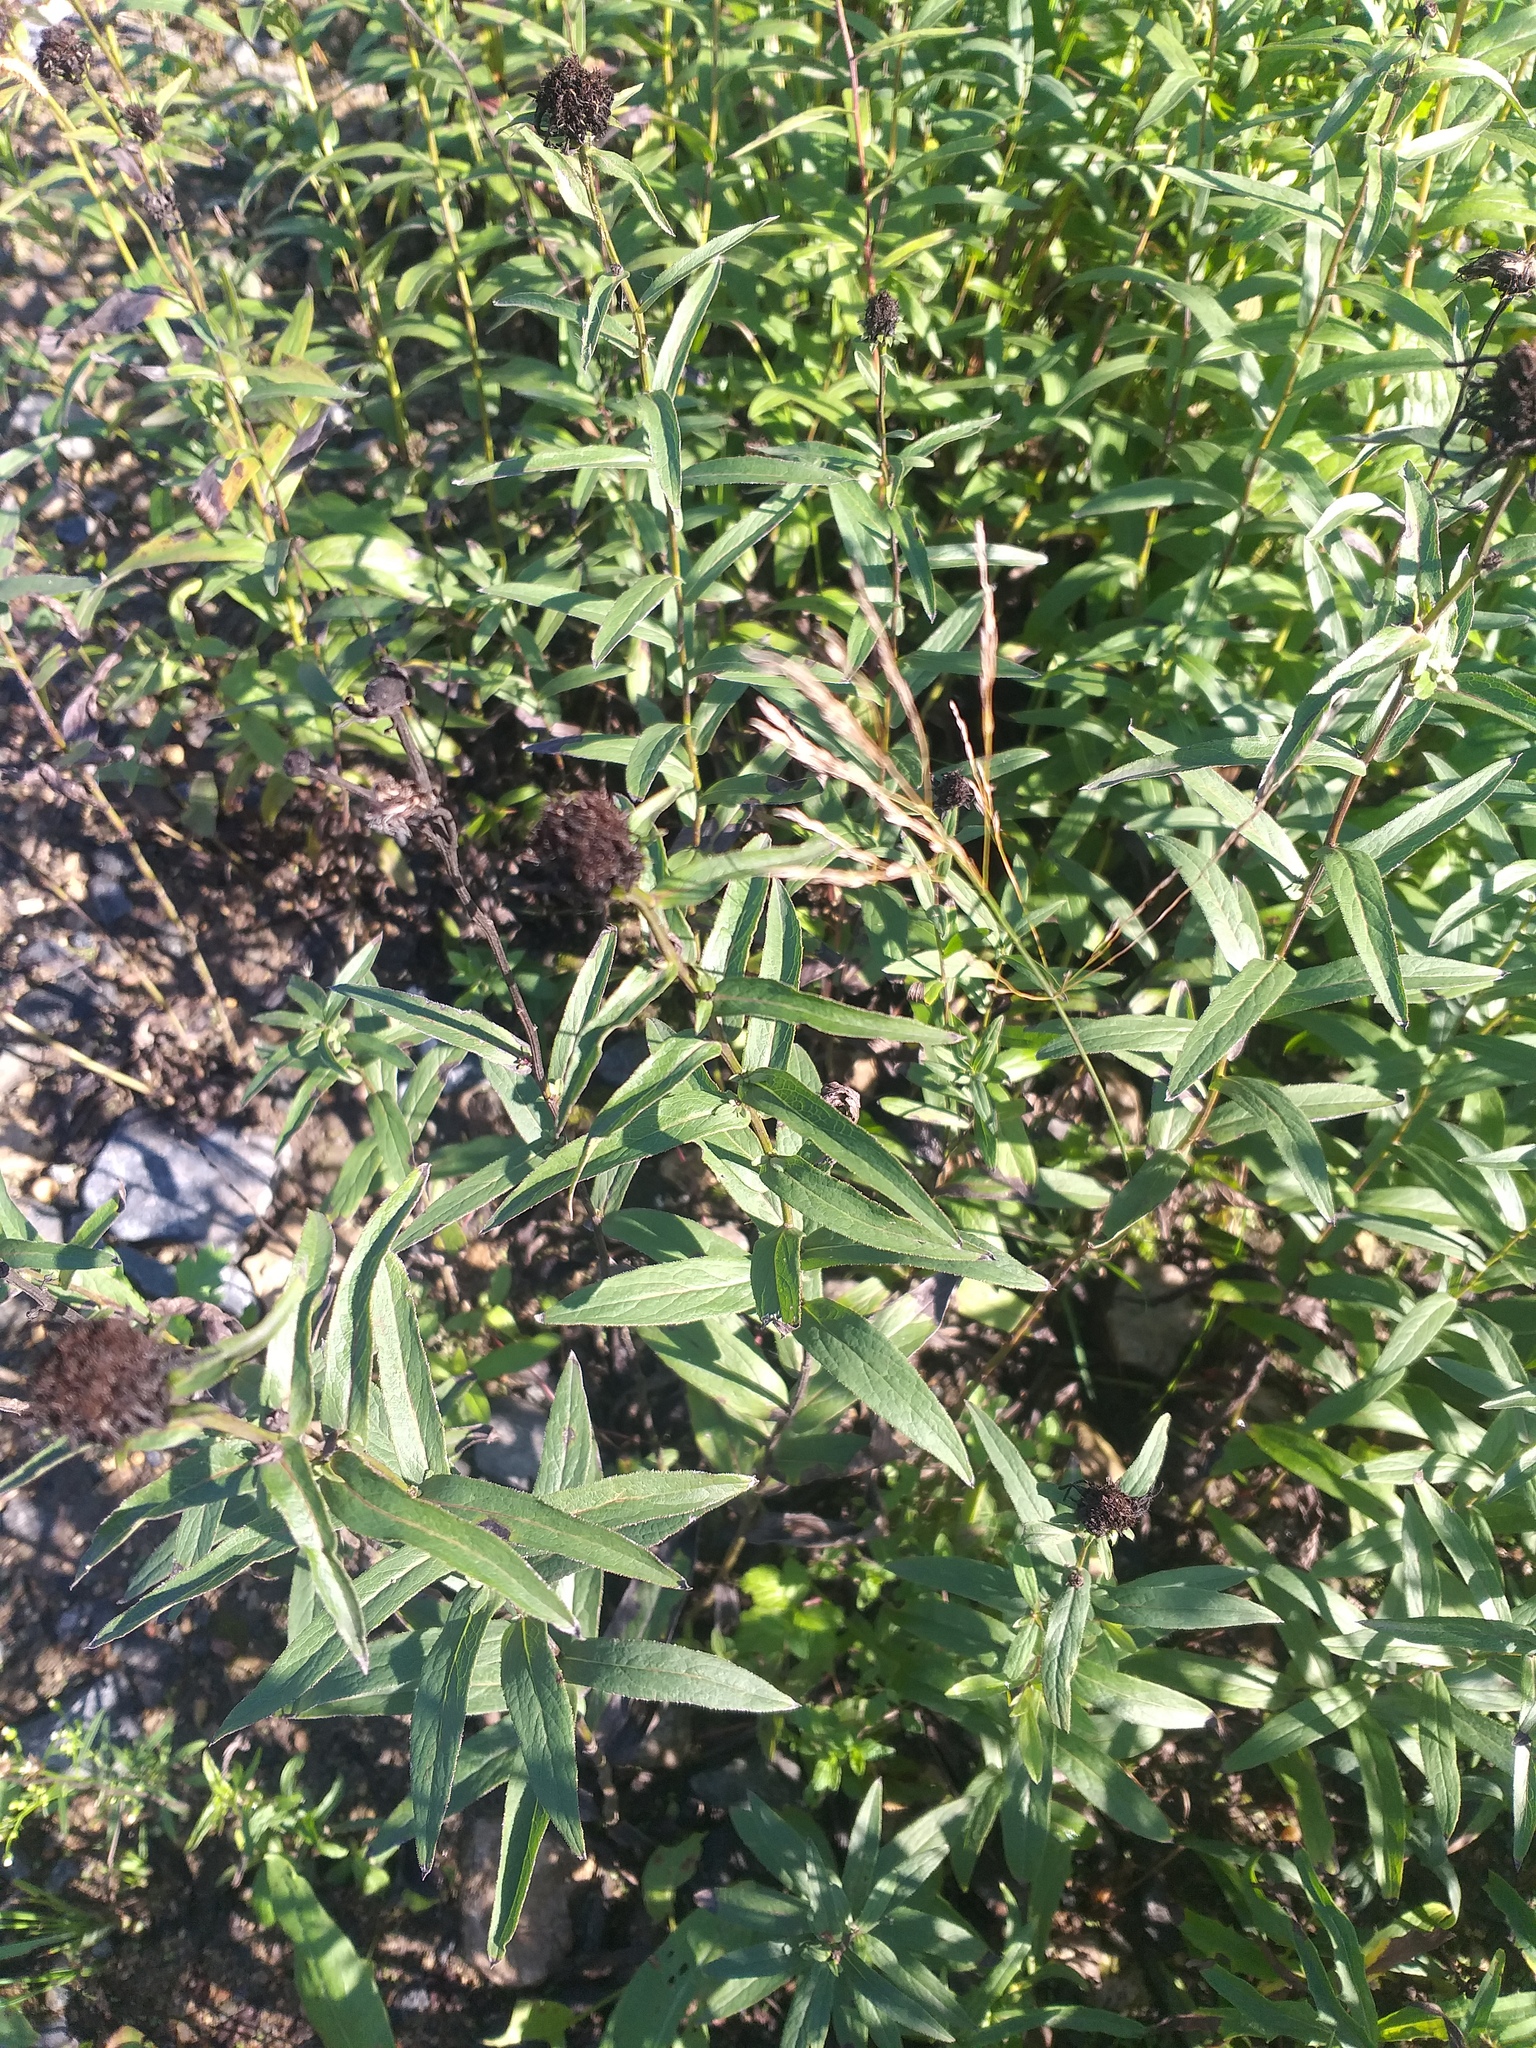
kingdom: Plantae
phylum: Tracheophyta
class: Magnoliopsida
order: Asterales
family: Asteraceae
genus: Pentanema
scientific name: Pentanema salicinum
